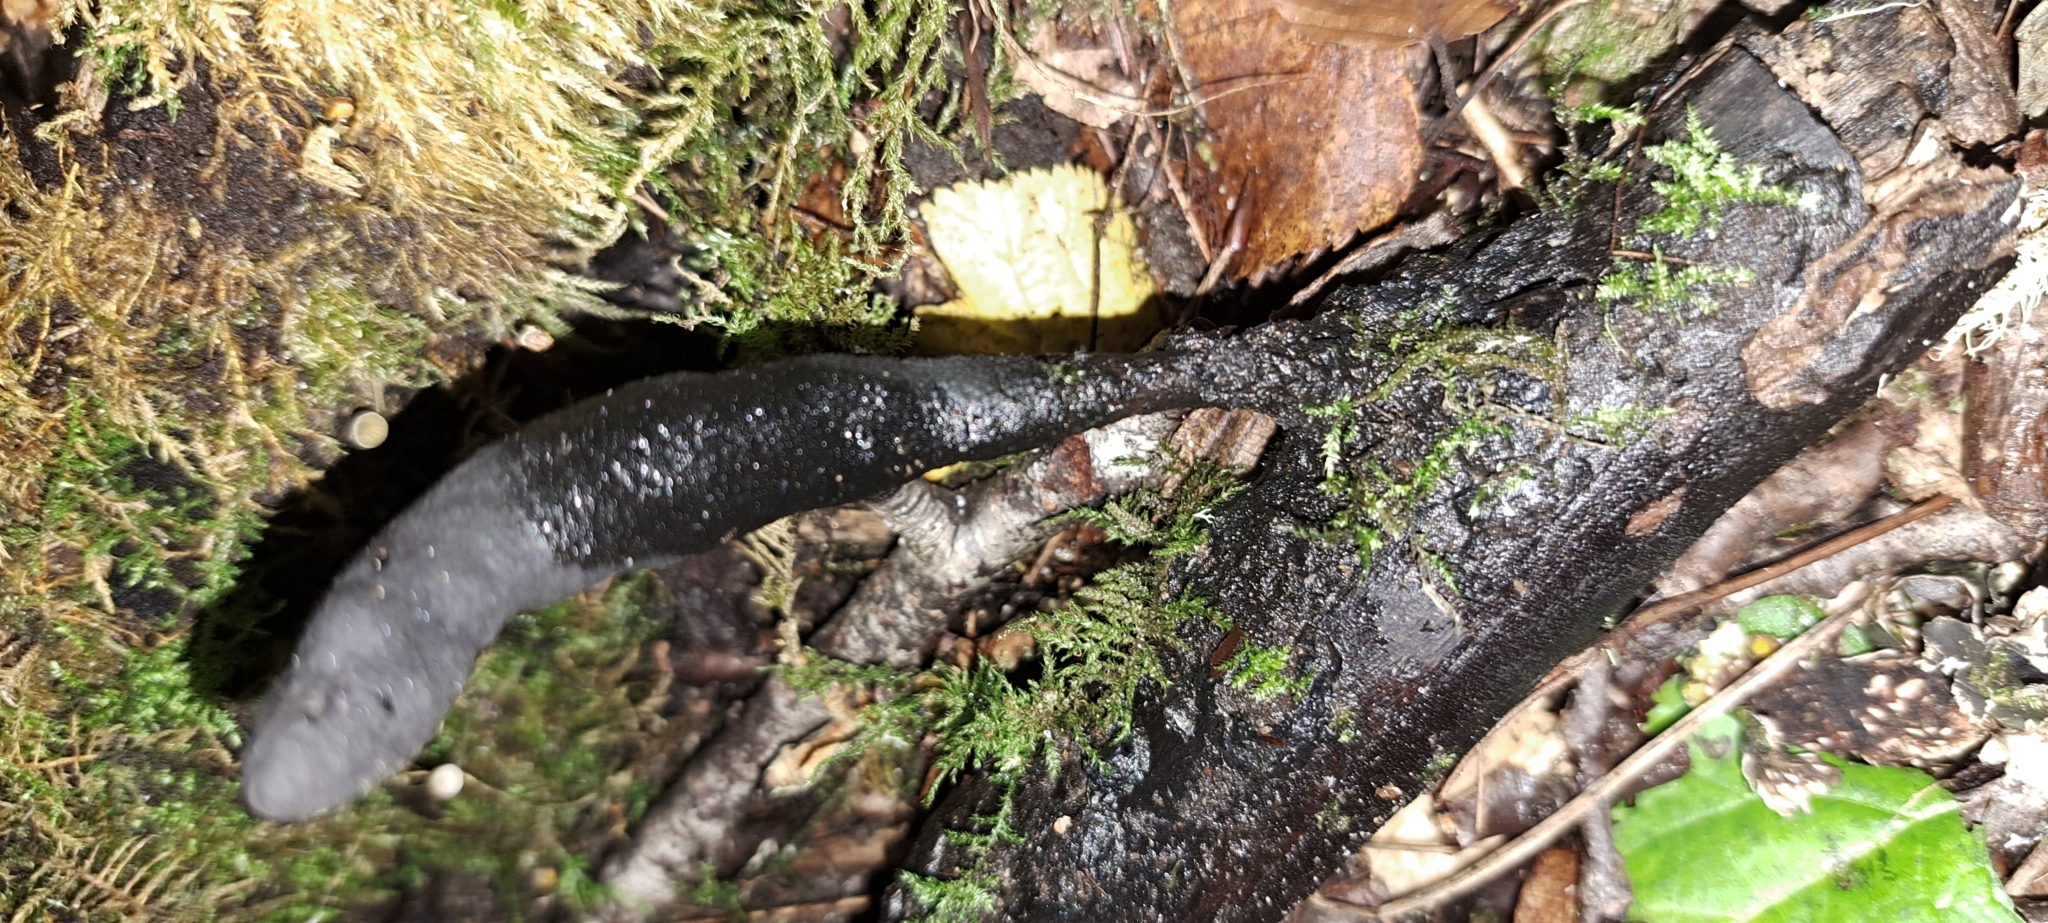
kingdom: Fungi
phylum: Ascomycota
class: Sordariomycetes
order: Xylariales
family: Xylariaceae
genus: Xylaria
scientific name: Xylaria longipes
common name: Dead moll's fingers
